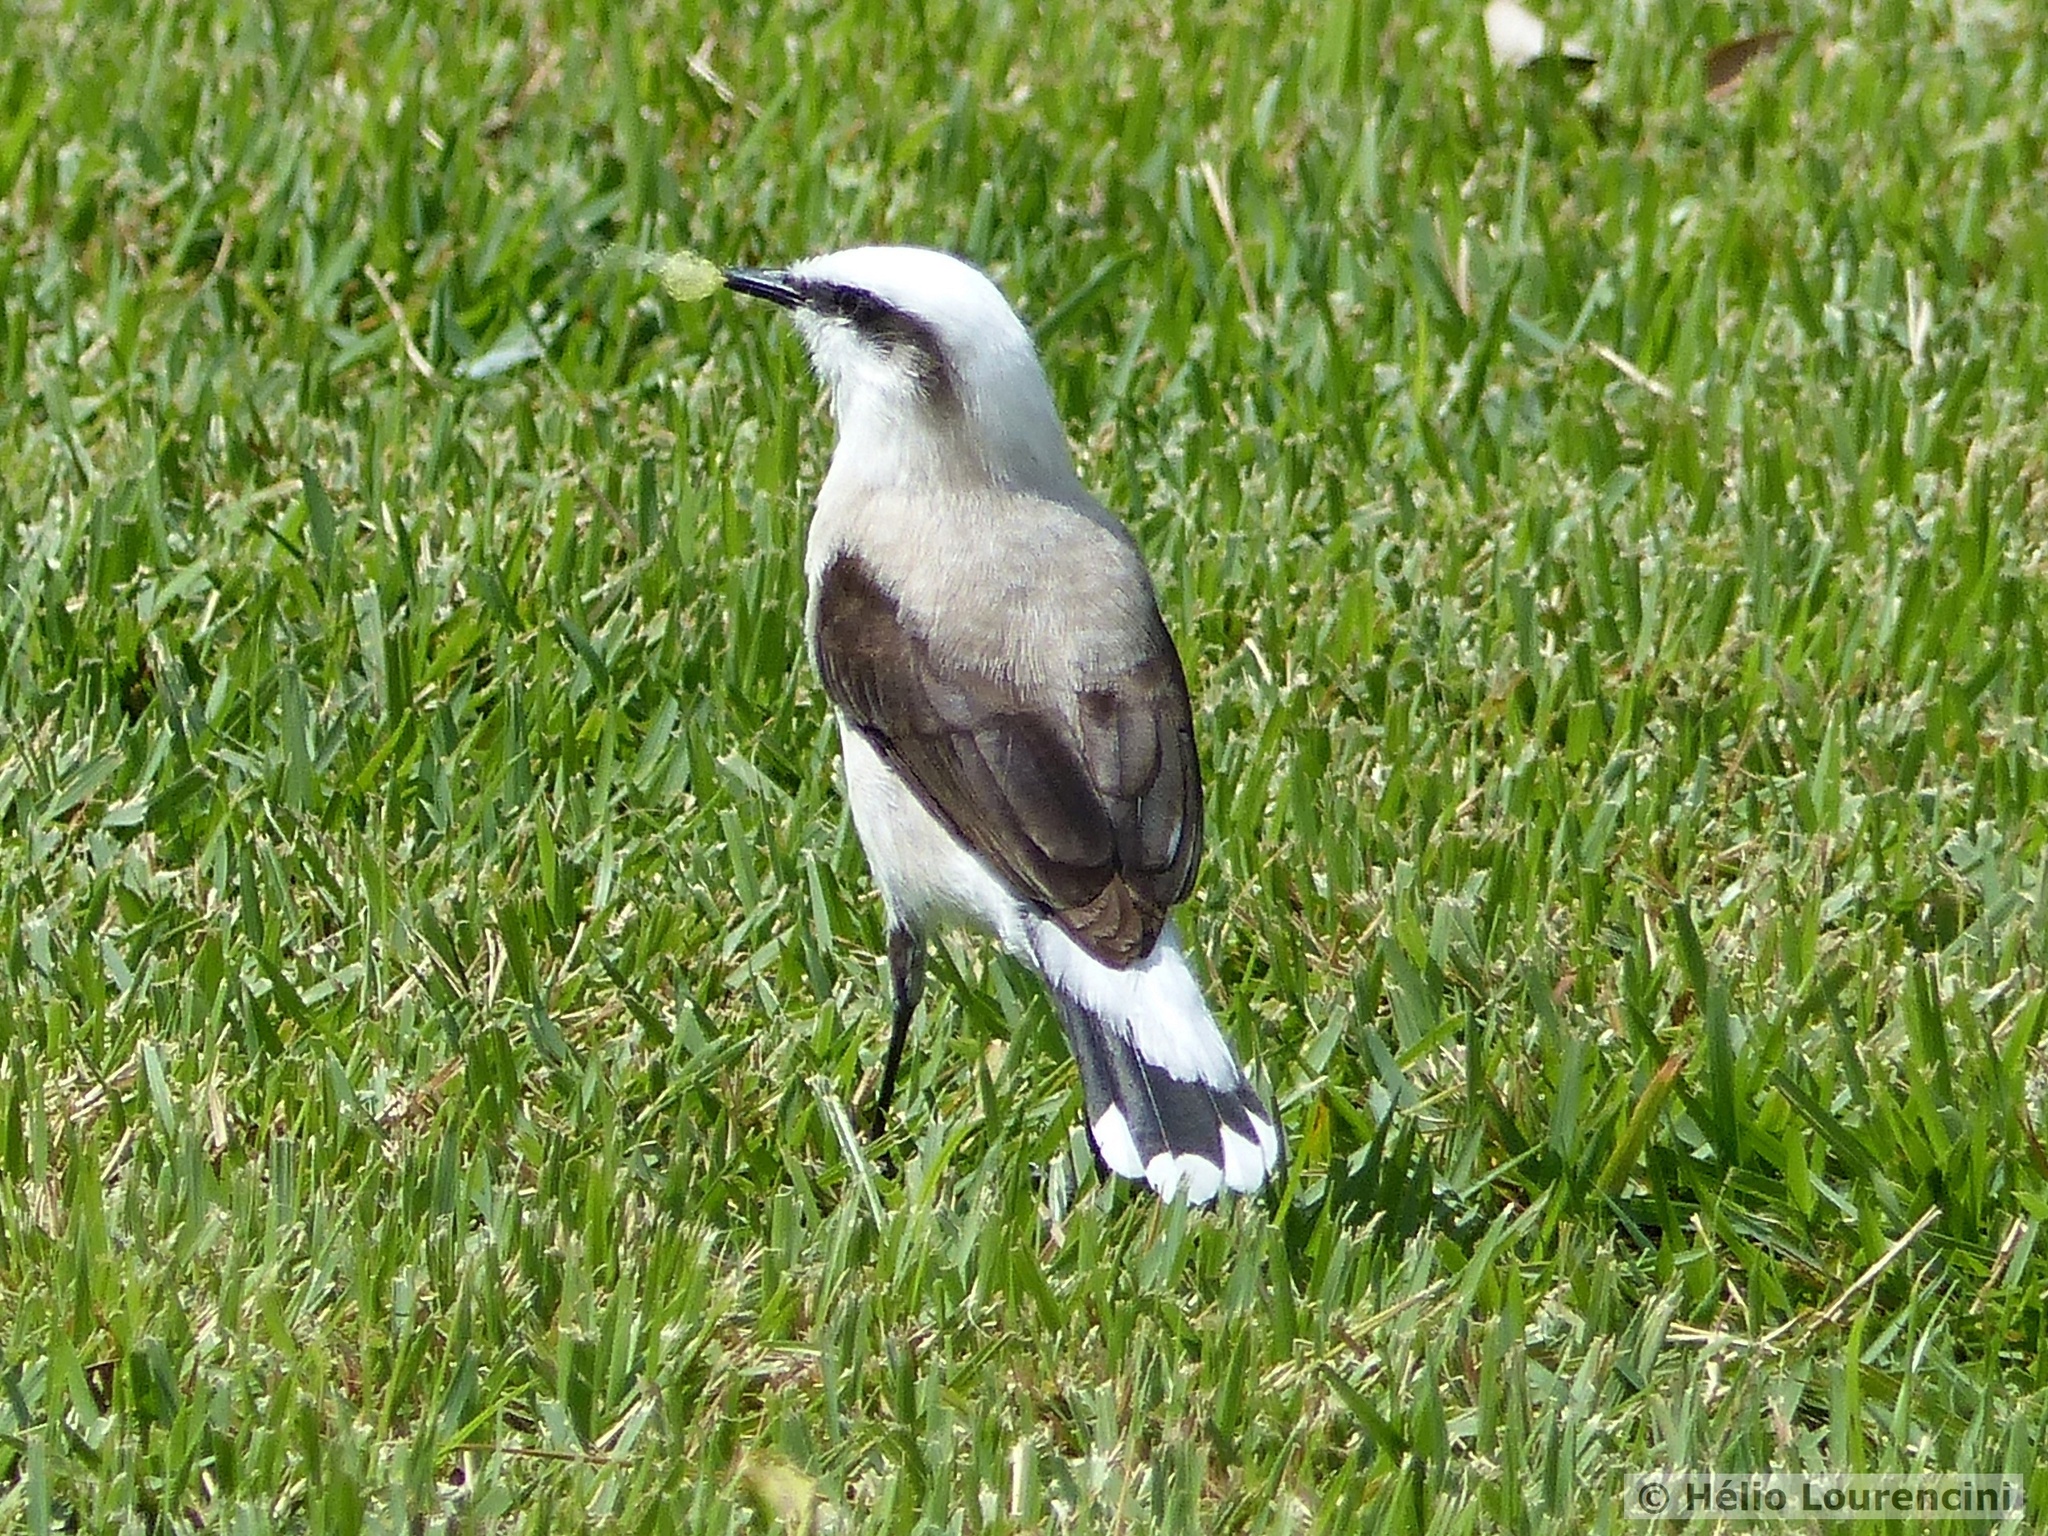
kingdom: Animalia
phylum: Chordata
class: Aves
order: Passeriformes
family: Tyrannidae
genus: Fluvicola
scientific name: Fluvicola nengeta
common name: Masked water tyrant
